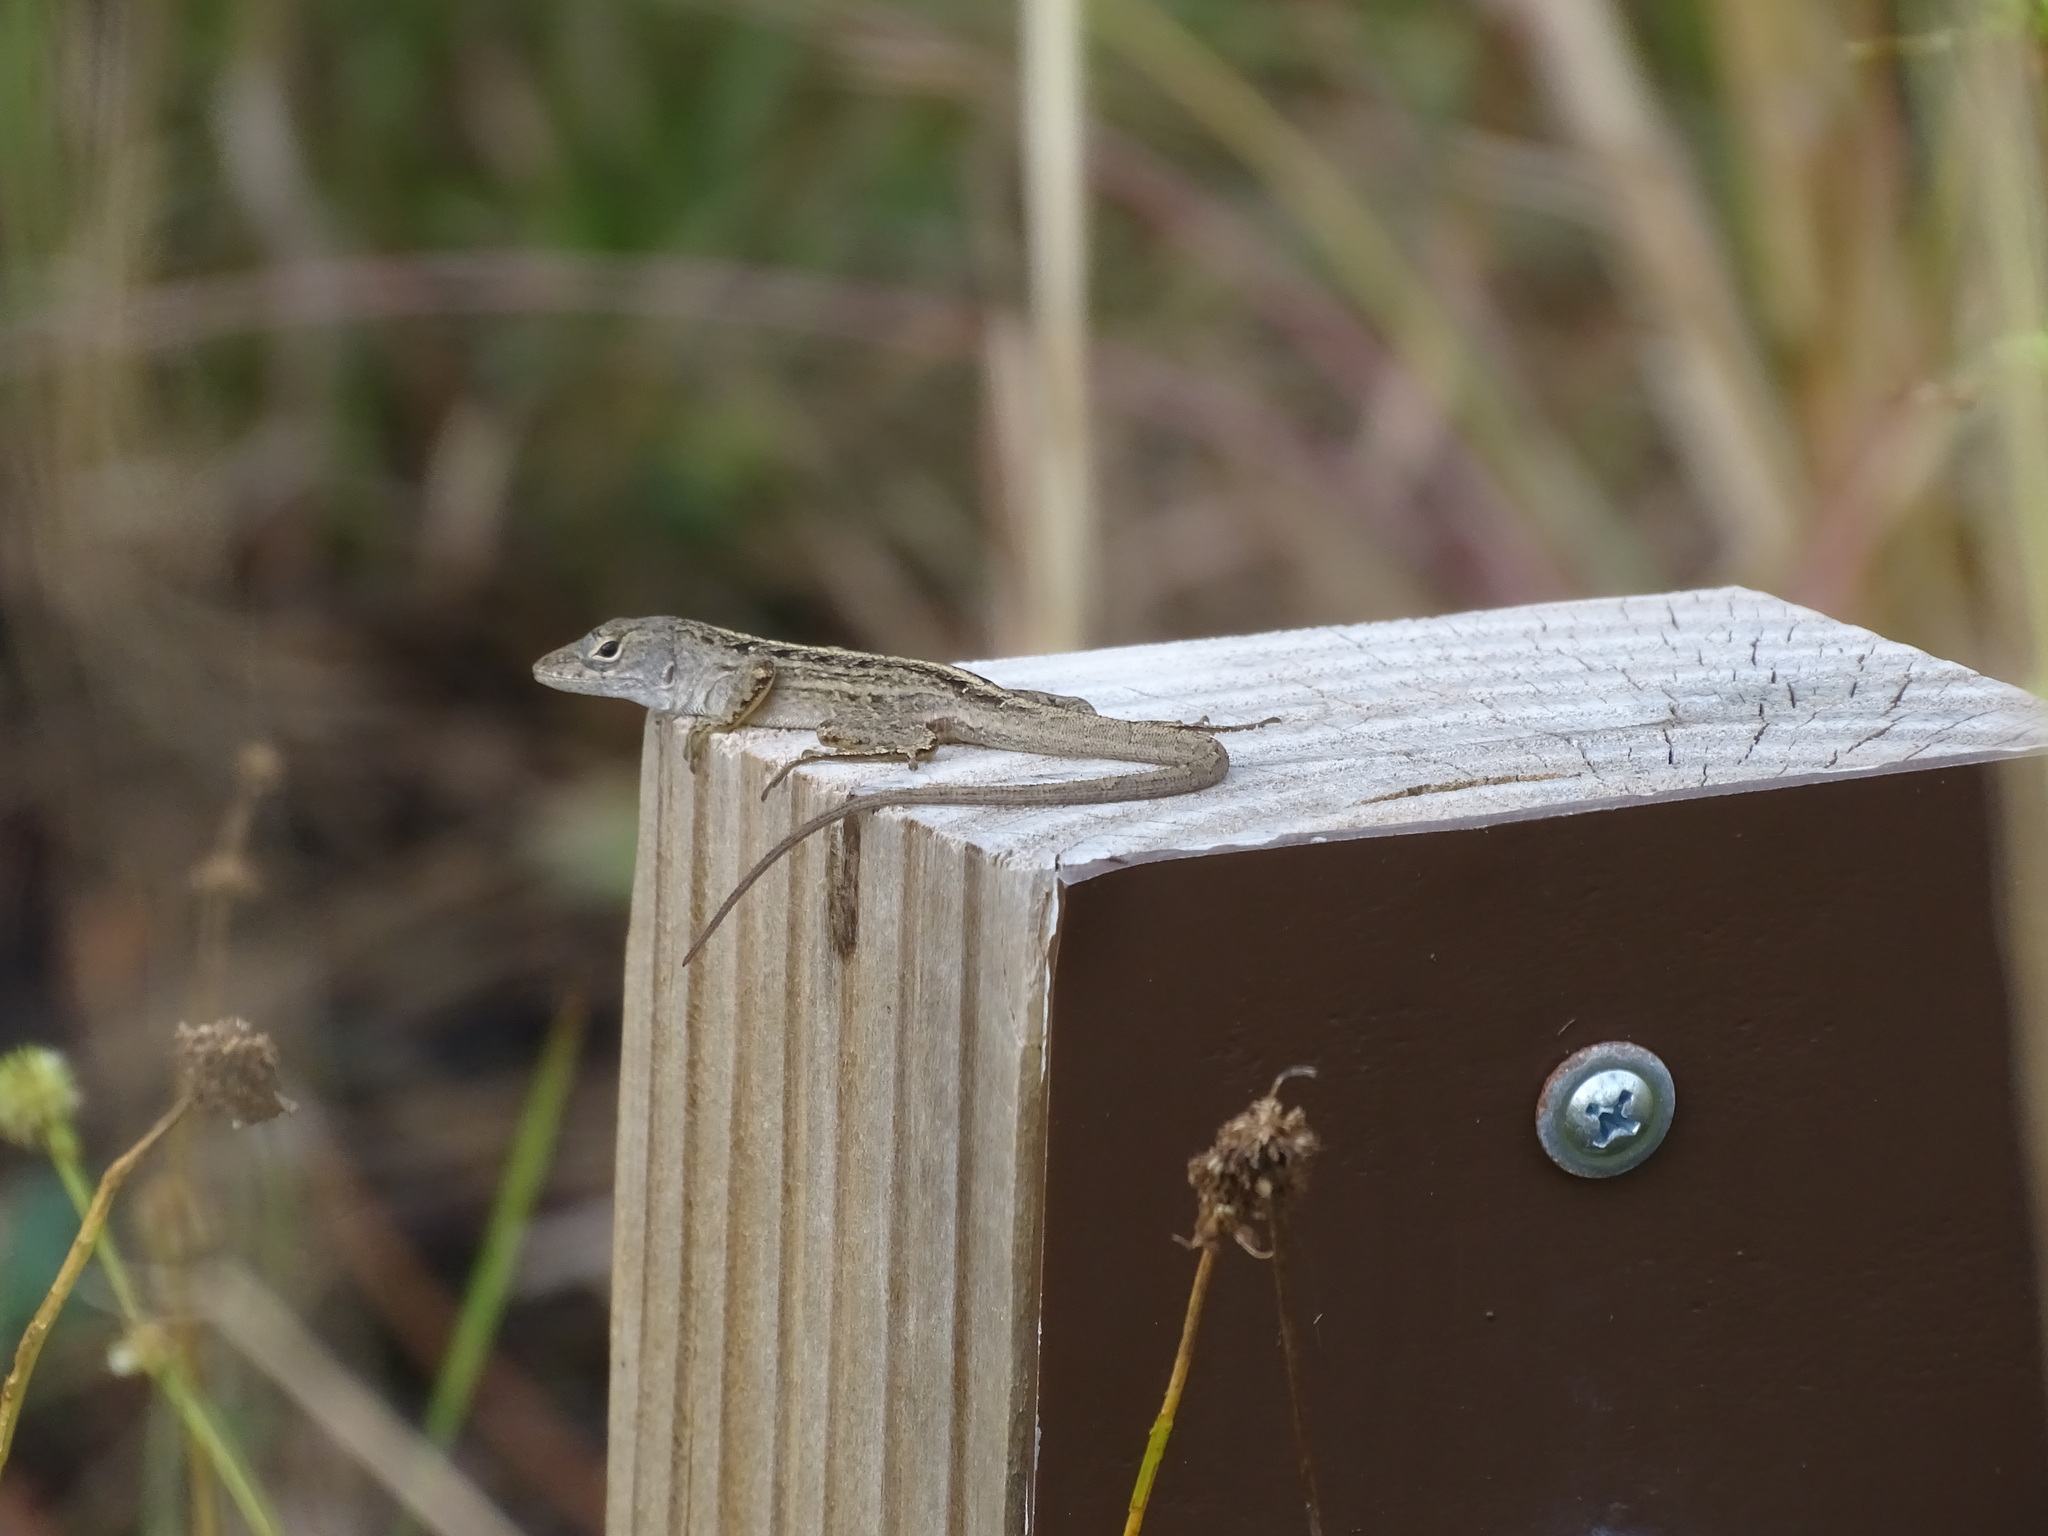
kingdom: Animalia
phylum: Chordata
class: Squamata
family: Dactyloidae
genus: Anolis
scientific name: Anolis sagrei
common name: Brown anole
